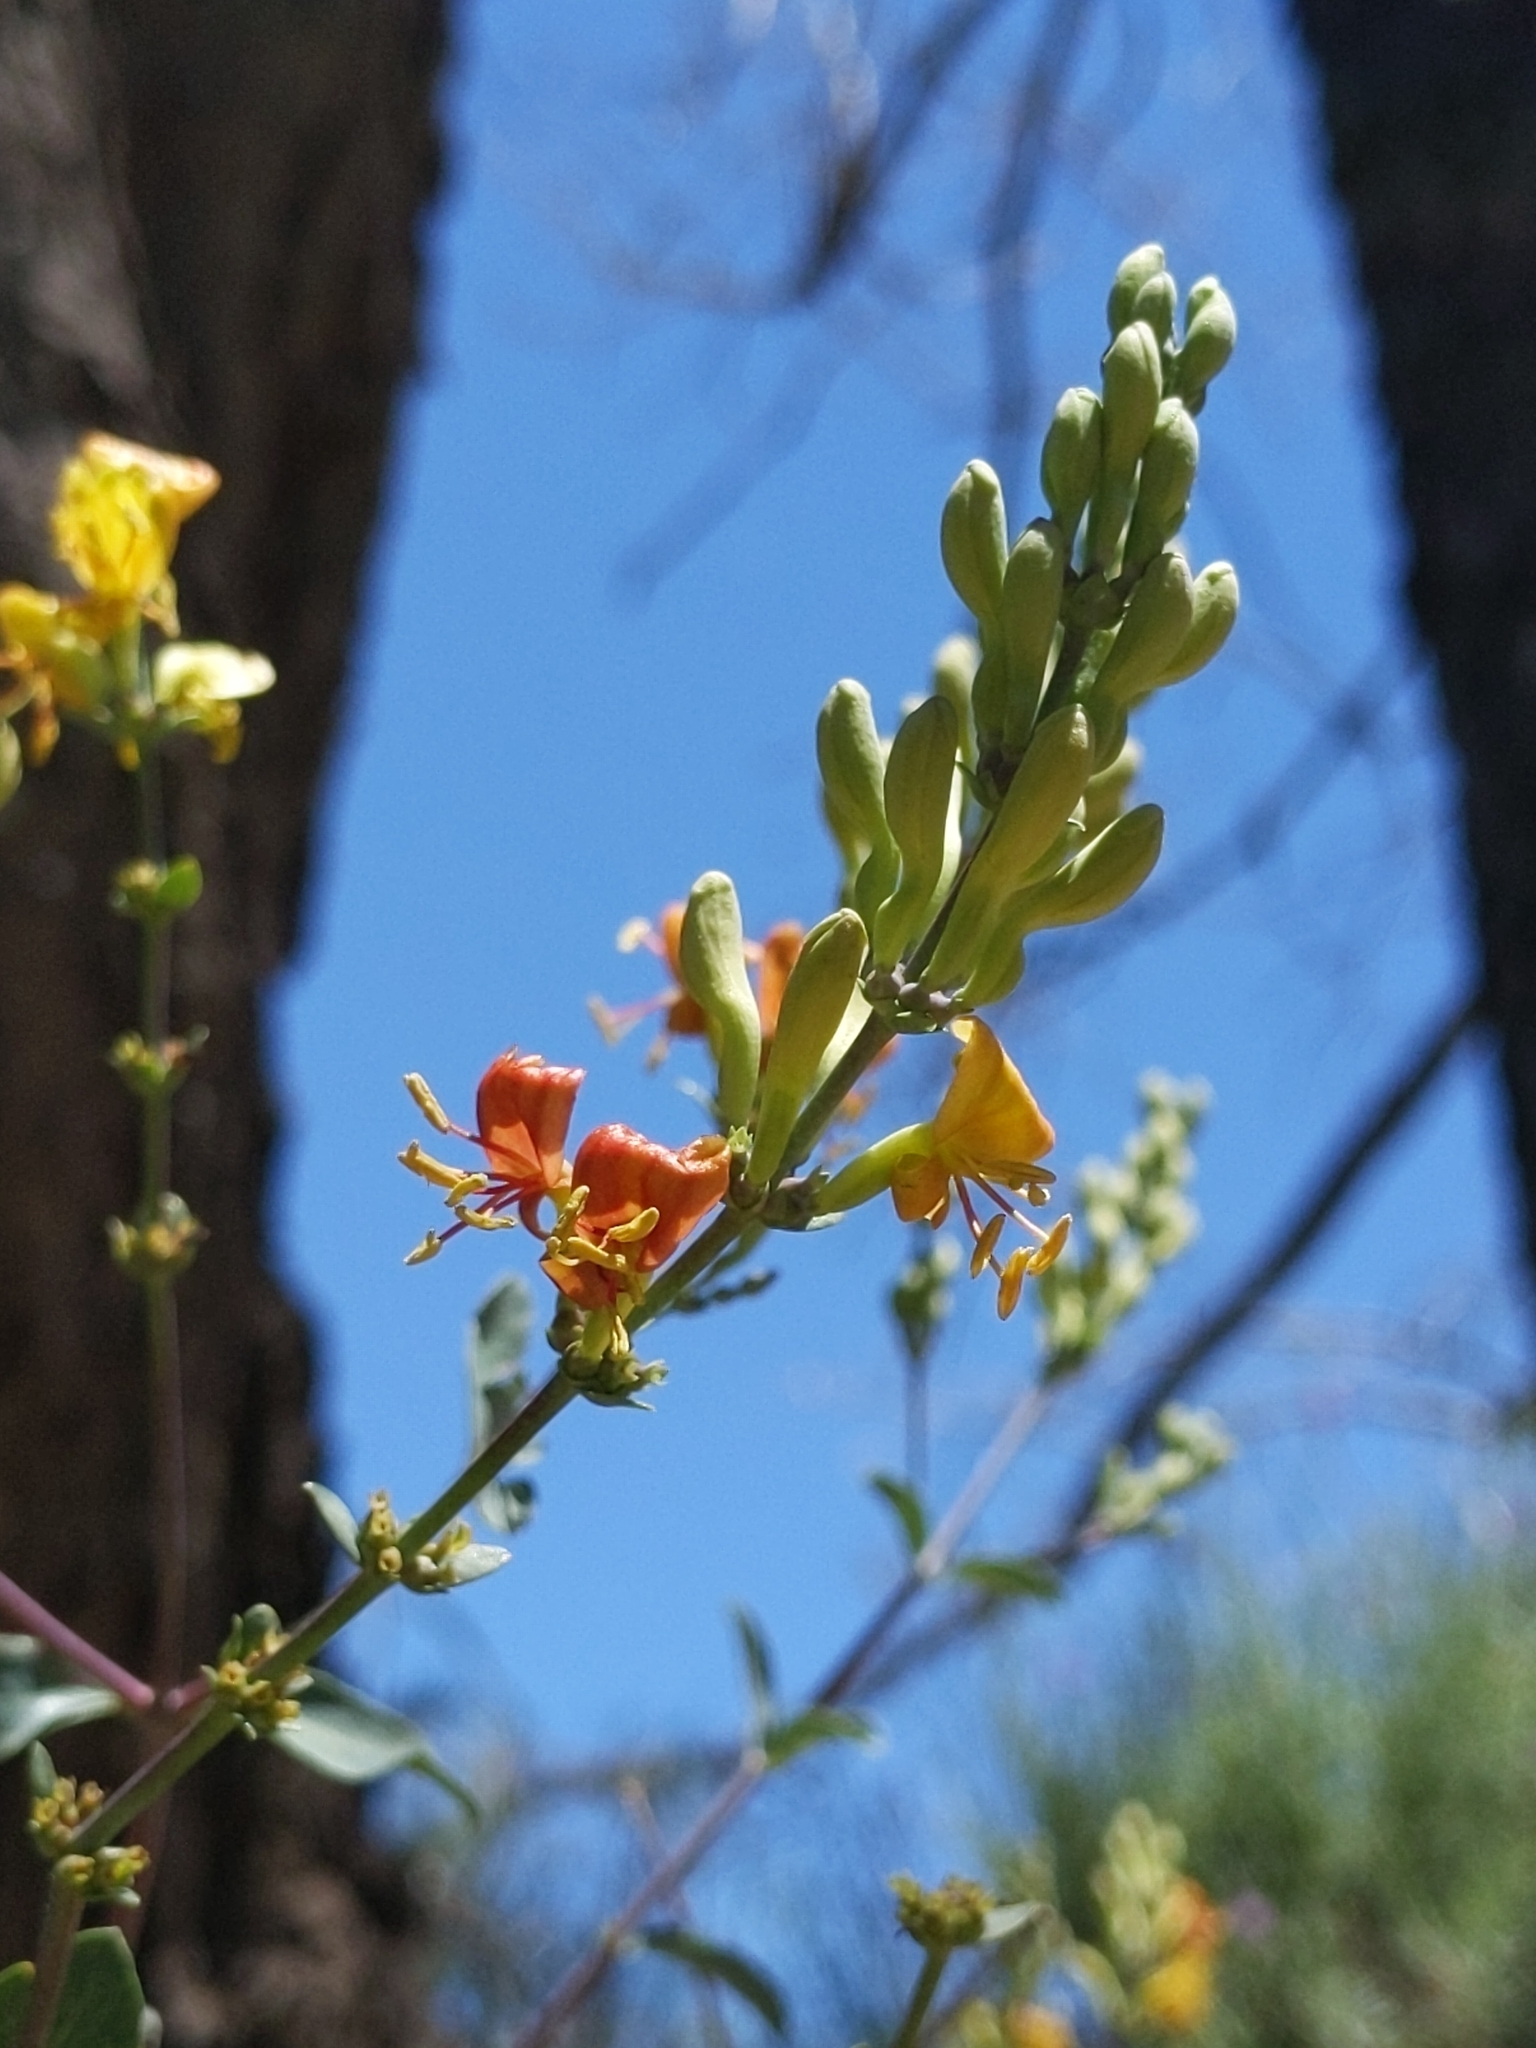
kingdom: Plantae
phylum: Tracheophyta
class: Magnoliopsida
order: Dipsacales
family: Caprifoliaceae
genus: Lonicera
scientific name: Lonicera subspicata
